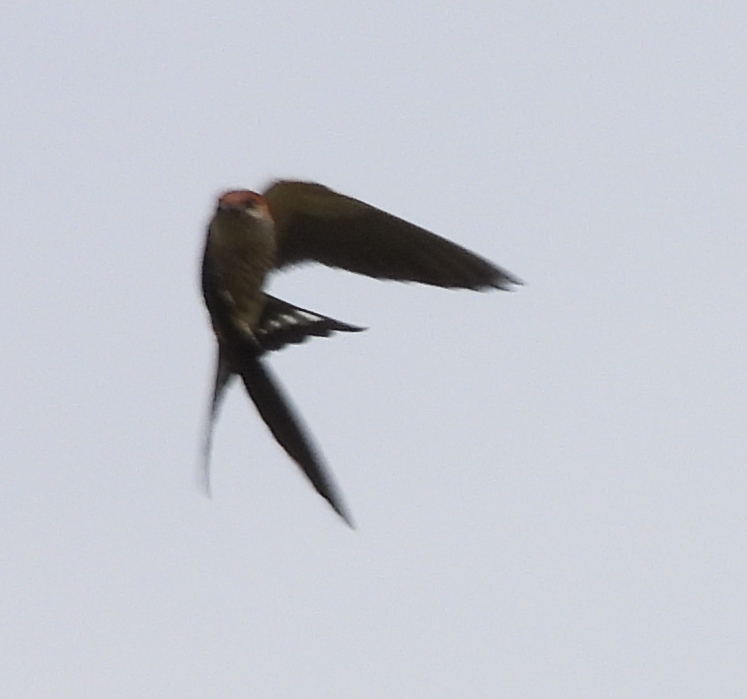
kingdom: Animalia
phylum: Chordata
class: Aves
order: Passeriformes
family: Hirundinidae
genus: Cecropis
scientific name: Cecropis cucullata
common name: Greater striped-swallow
